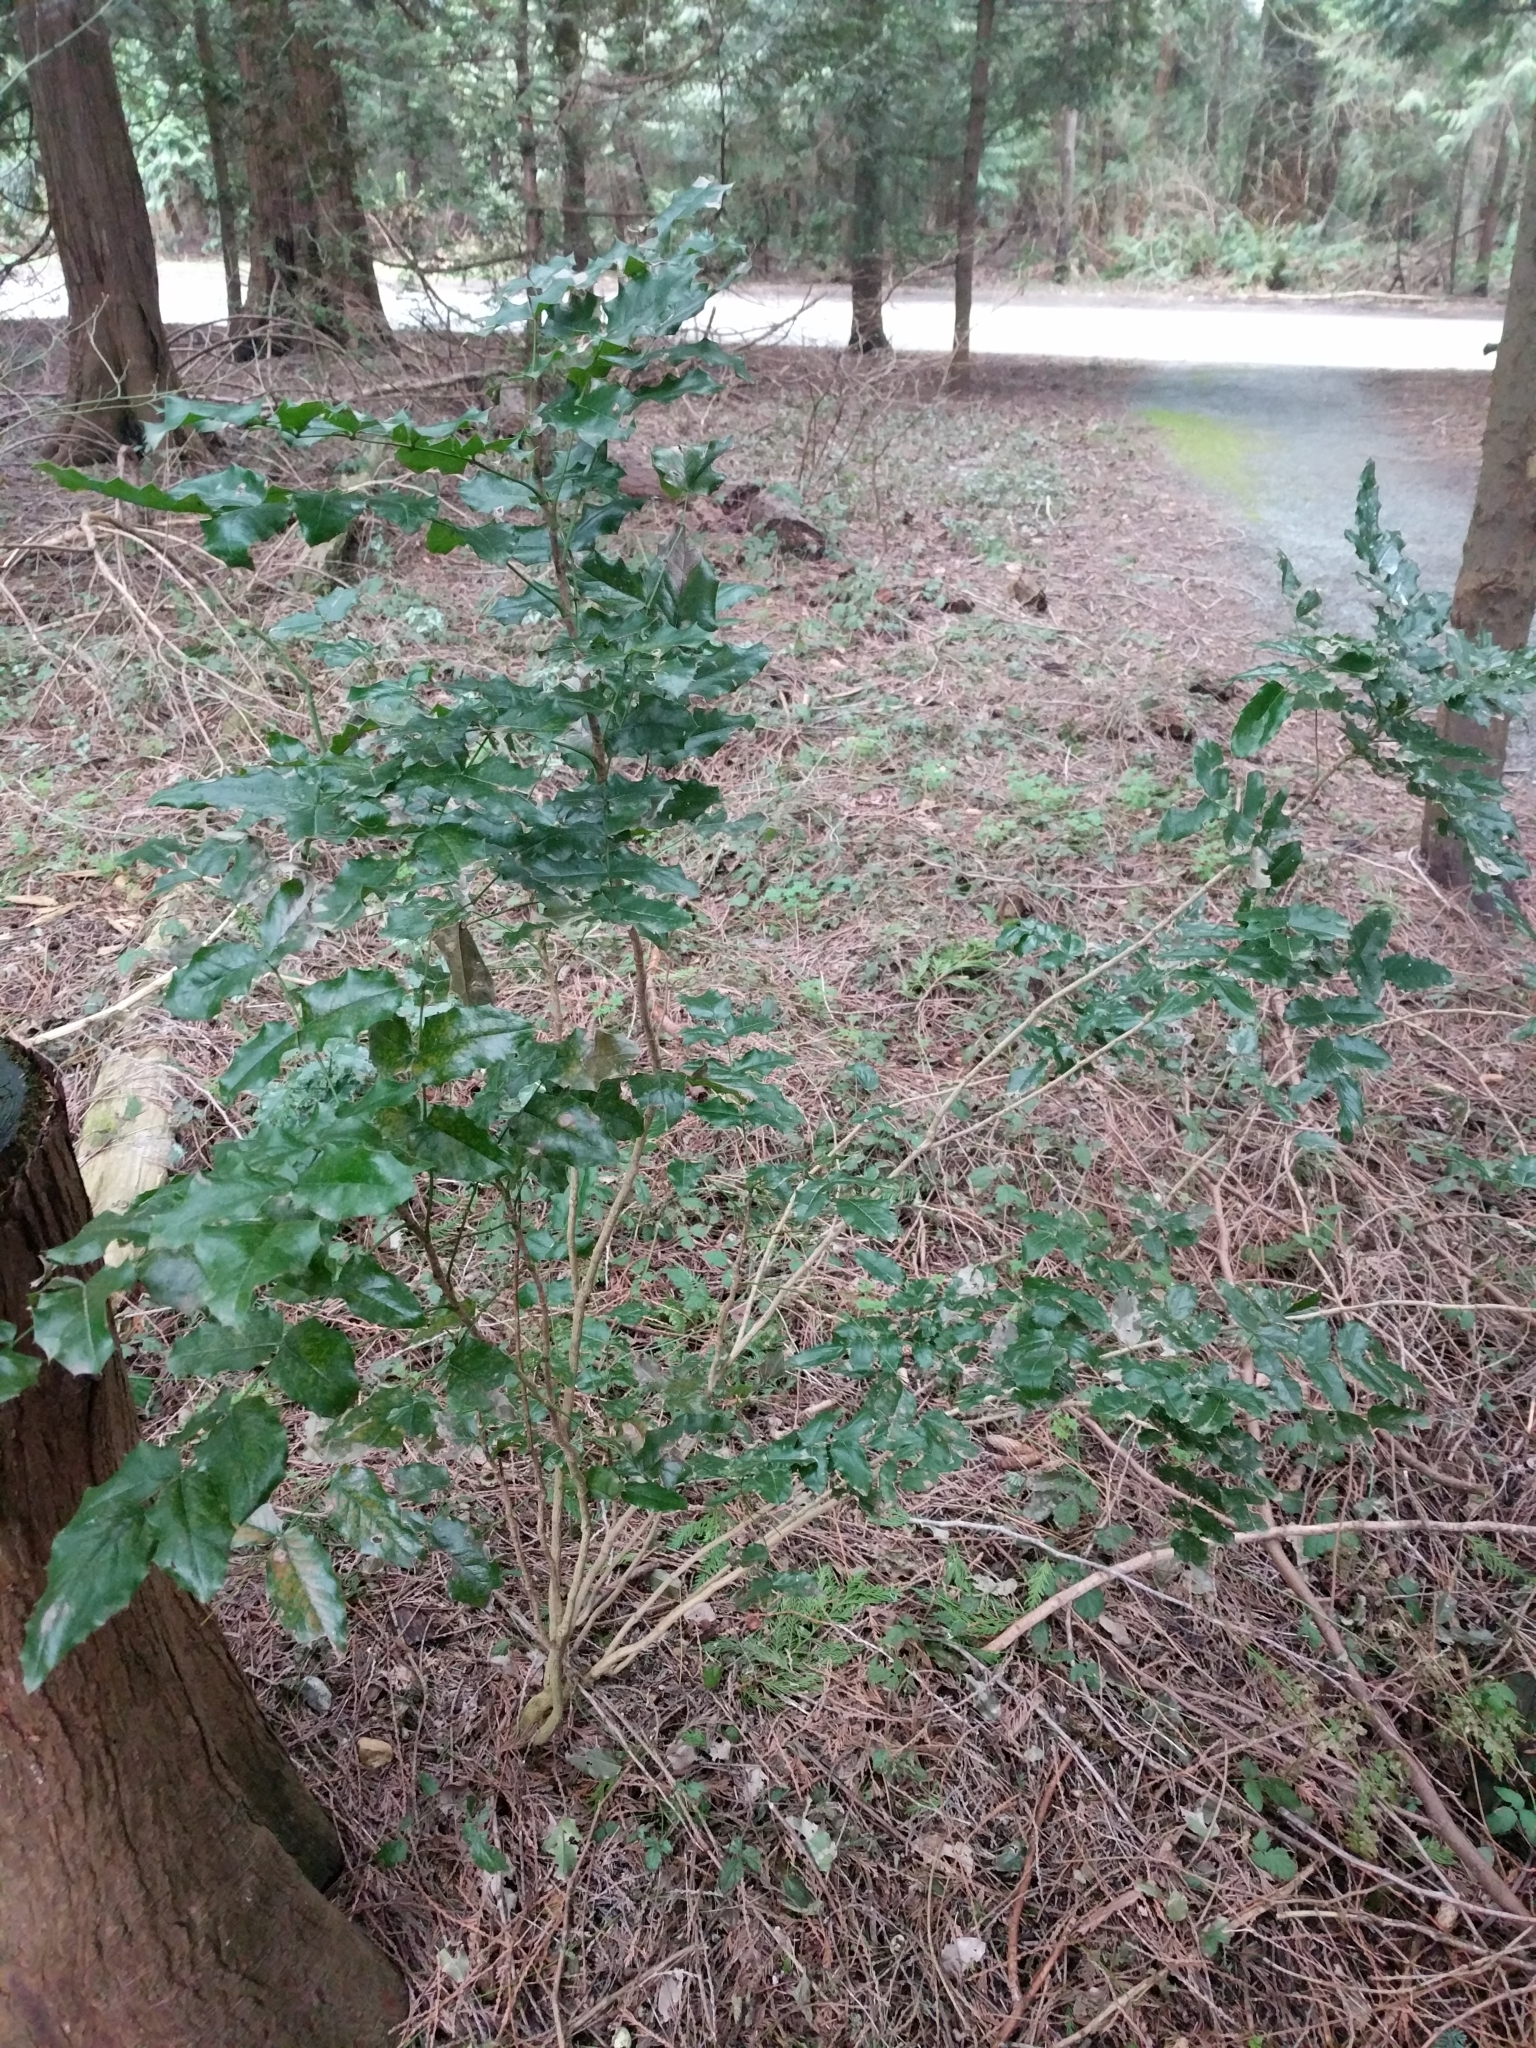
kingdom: Plantae
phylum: Tracheophyta
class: Magnoliopsida
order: Ranunculales
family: Berberidaceae
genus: Mahonia
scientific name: Mahonia aquifolium
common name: Oregon-grape
